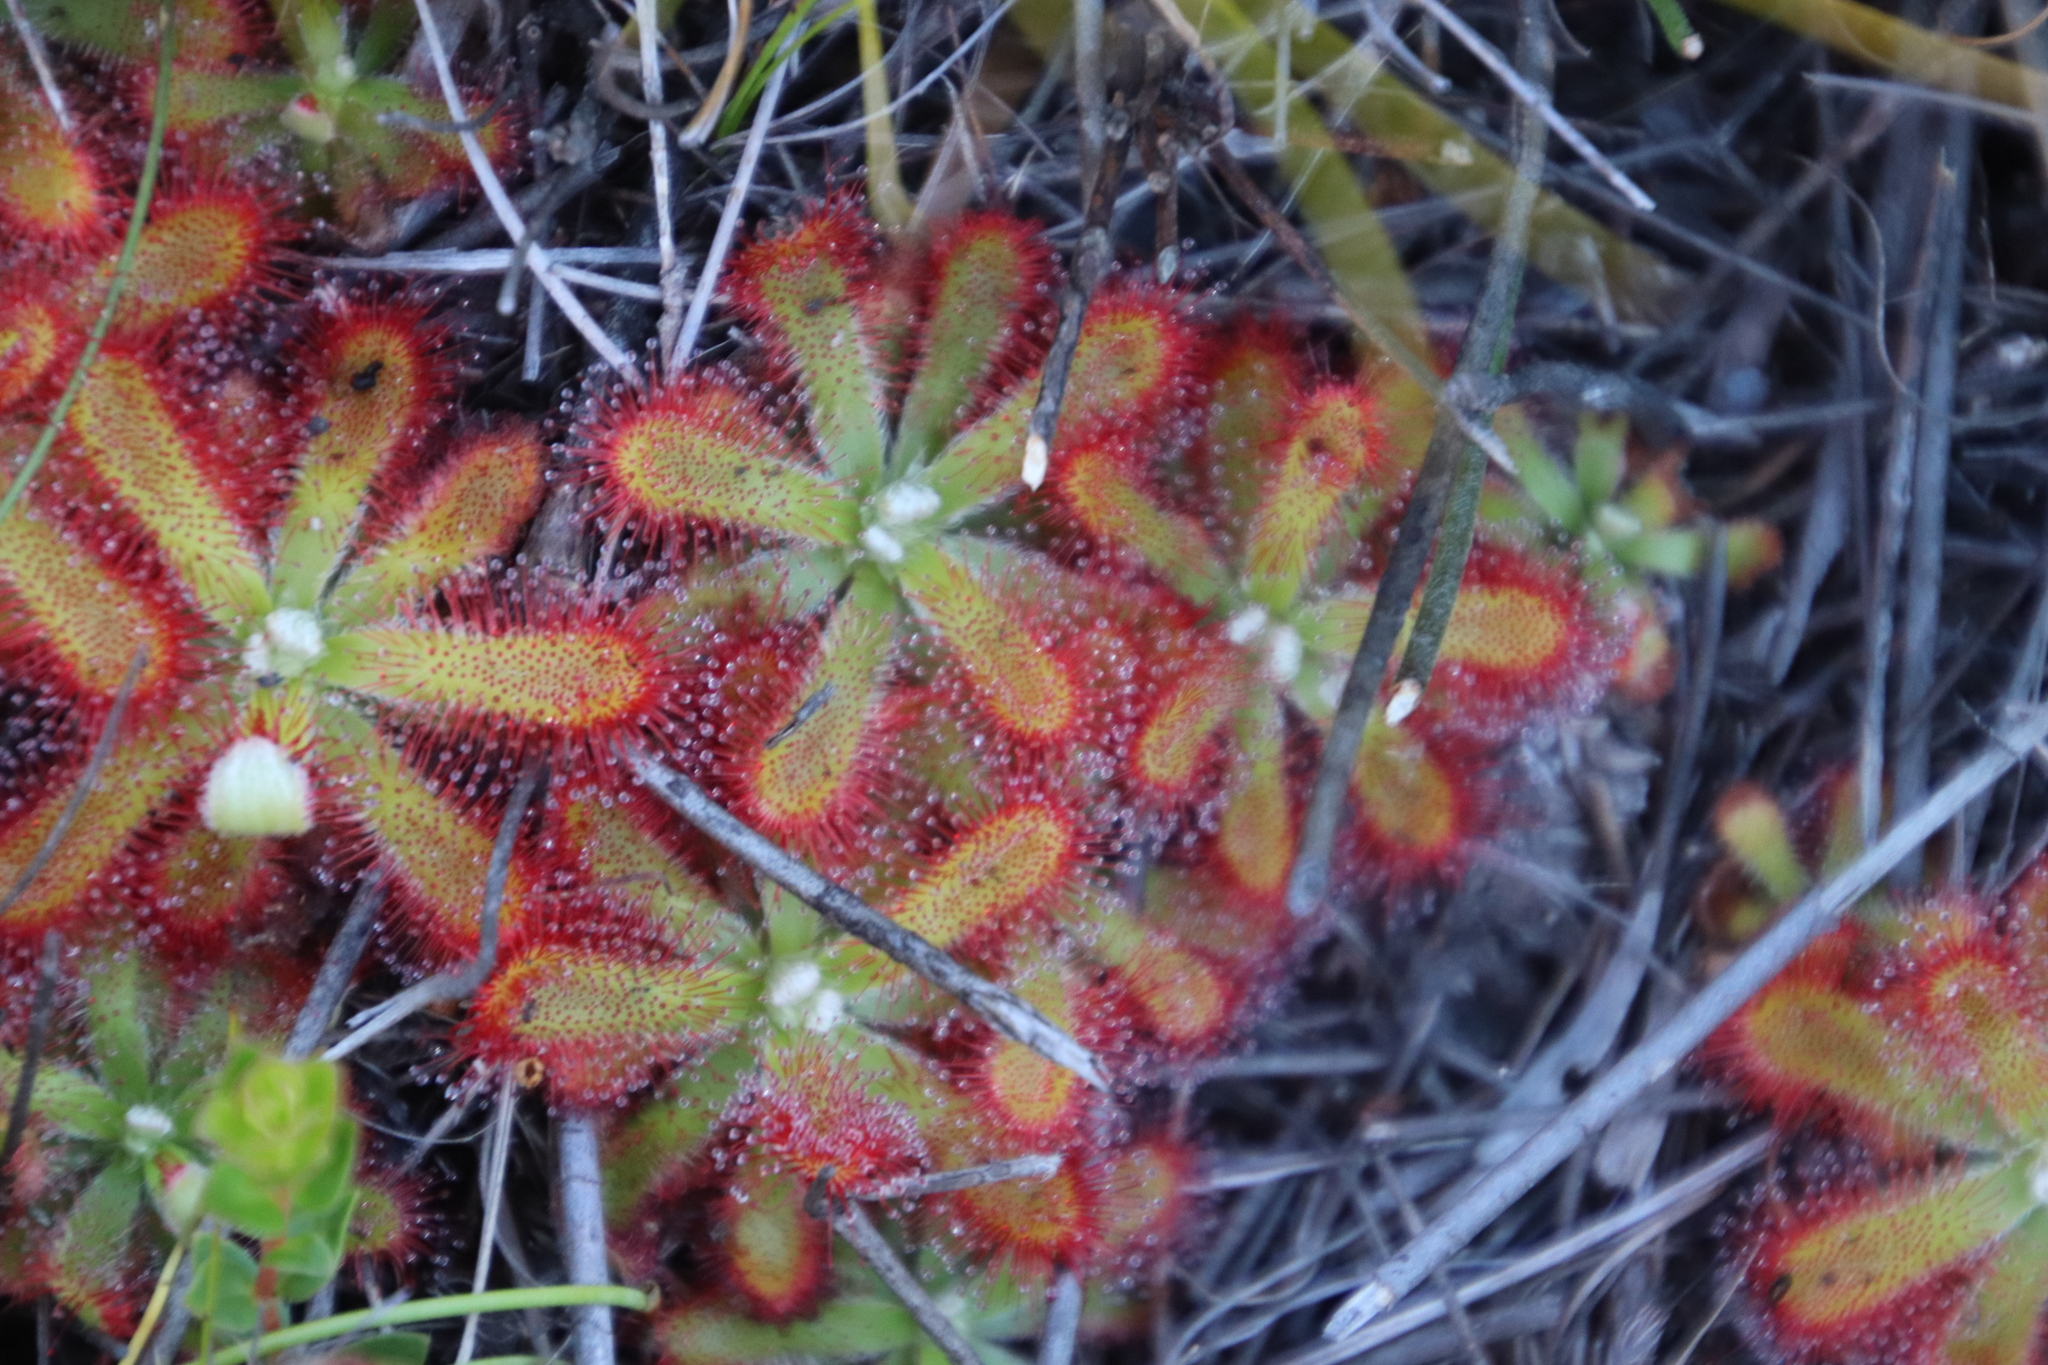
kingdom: Plantae
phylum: Tracheophyta
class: Magnoliopsida
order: Caryophyllales
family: Droseraceae
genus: Drosera
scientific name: Drosera aliciae
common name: Alice sundew
